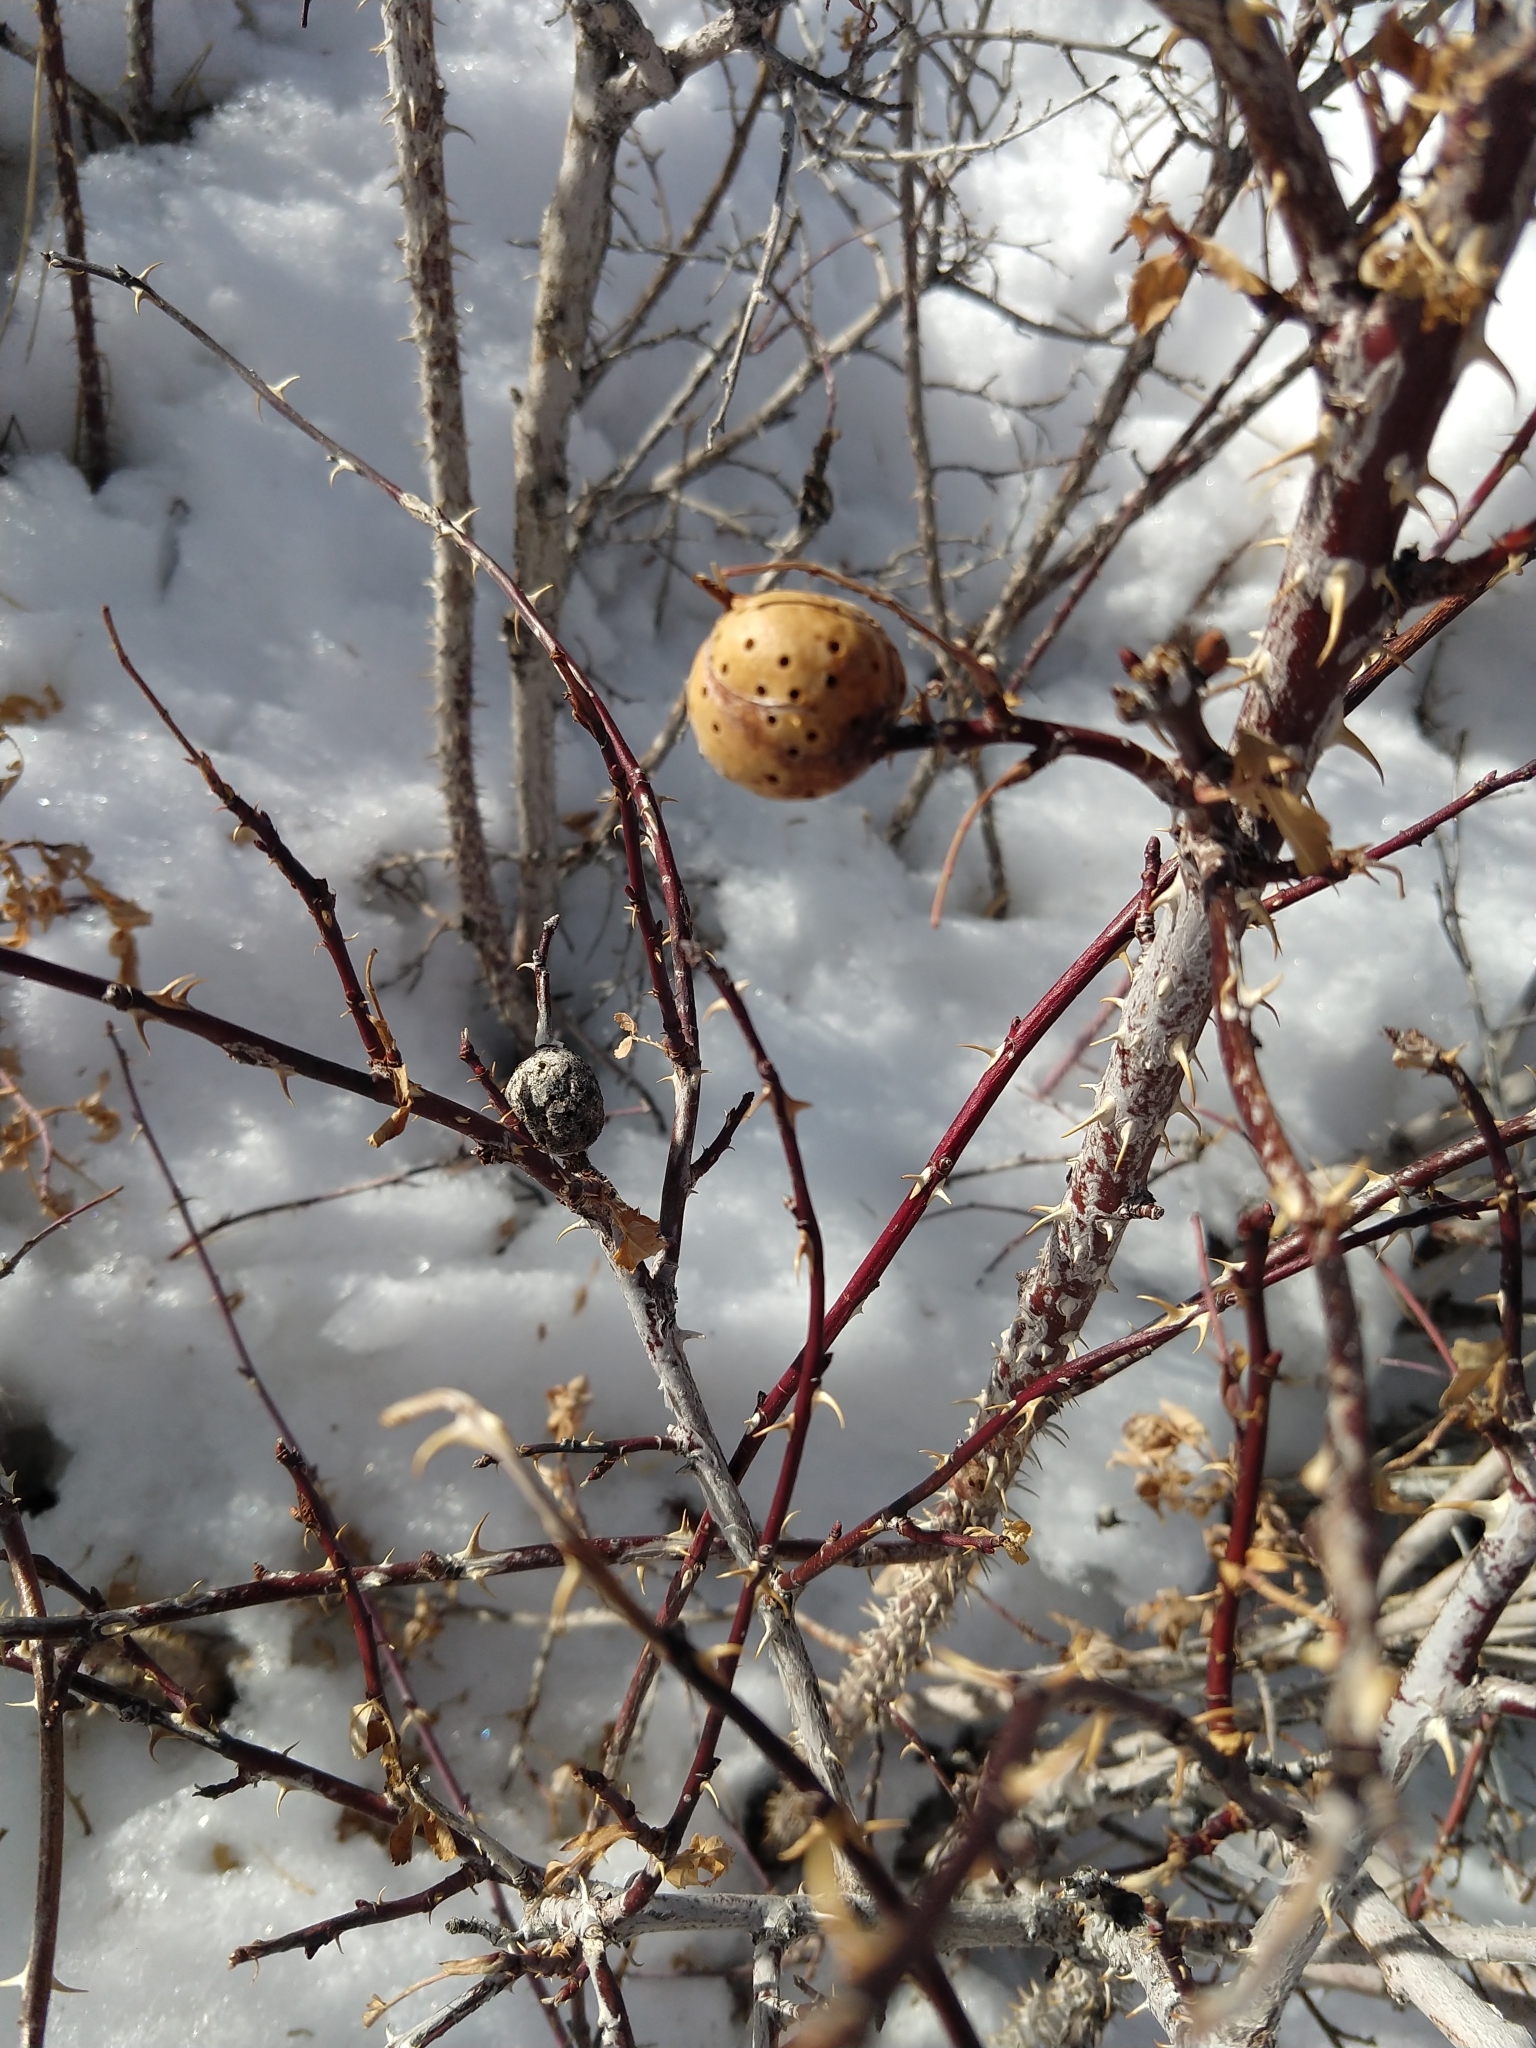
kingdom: Animalia
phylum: Arthropoda
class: Insecta
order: Hymenoptera
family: Cynipidae
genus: Diplolepis
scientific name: Diplolepis nodulosa
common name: Rose stem gall wasp
